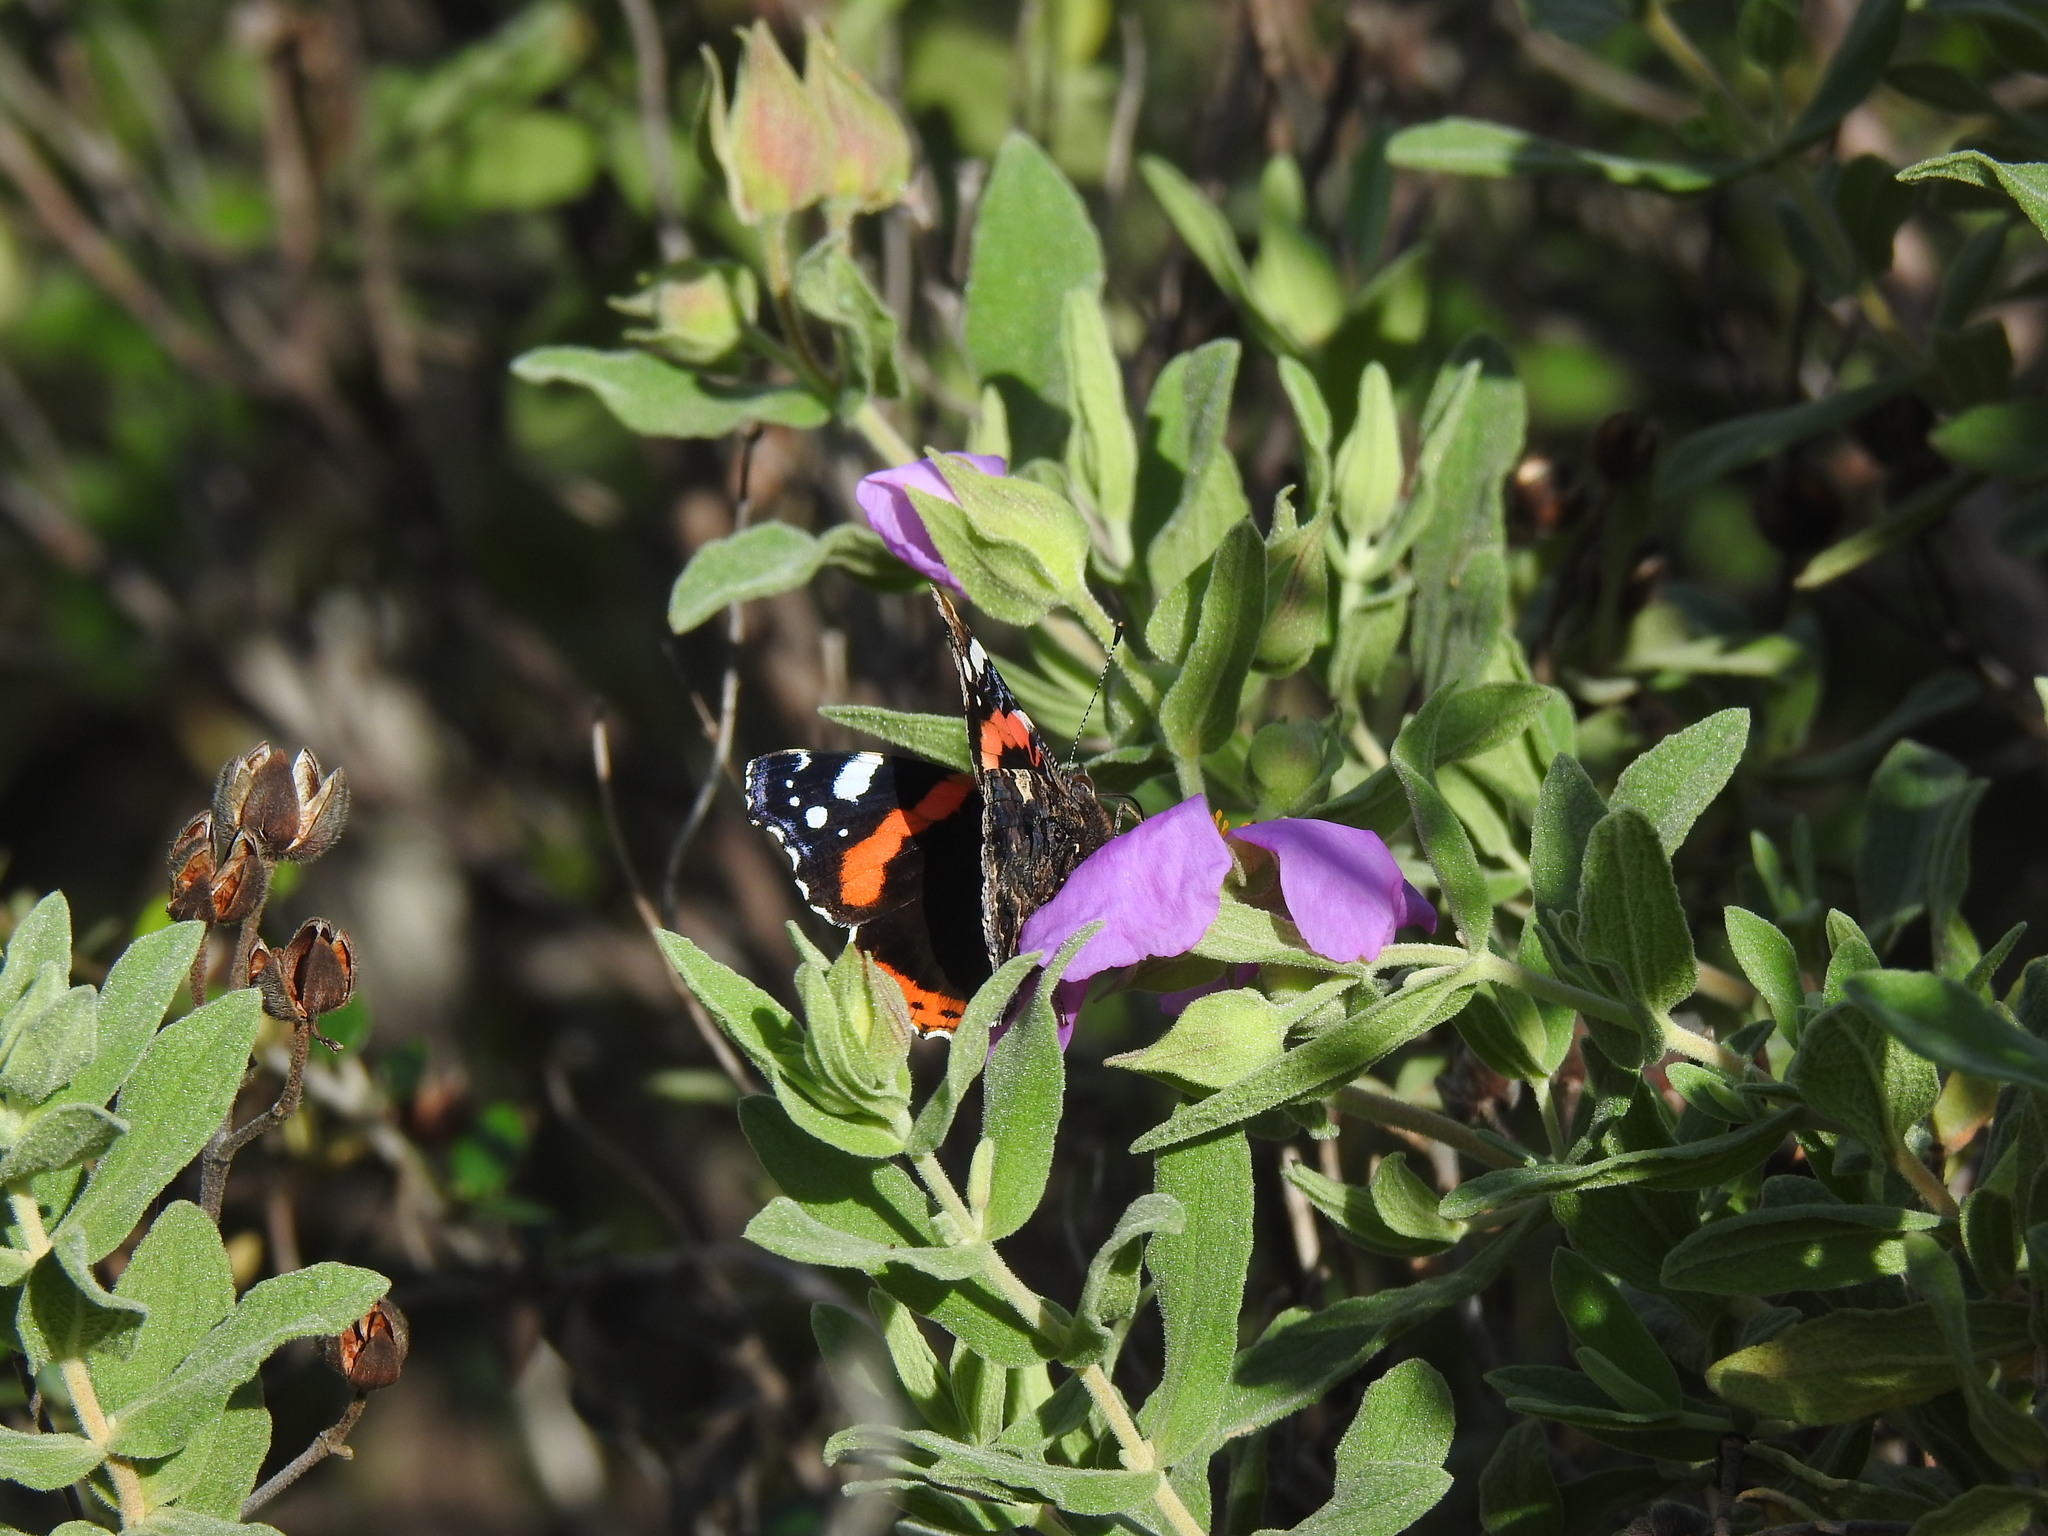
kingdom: Animalia
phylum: Arthropoda
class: Insecta
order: Lepidoptera
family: Nymphalidae
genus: Vanessa
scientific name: Vanessa atalanta
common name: Red admiral
